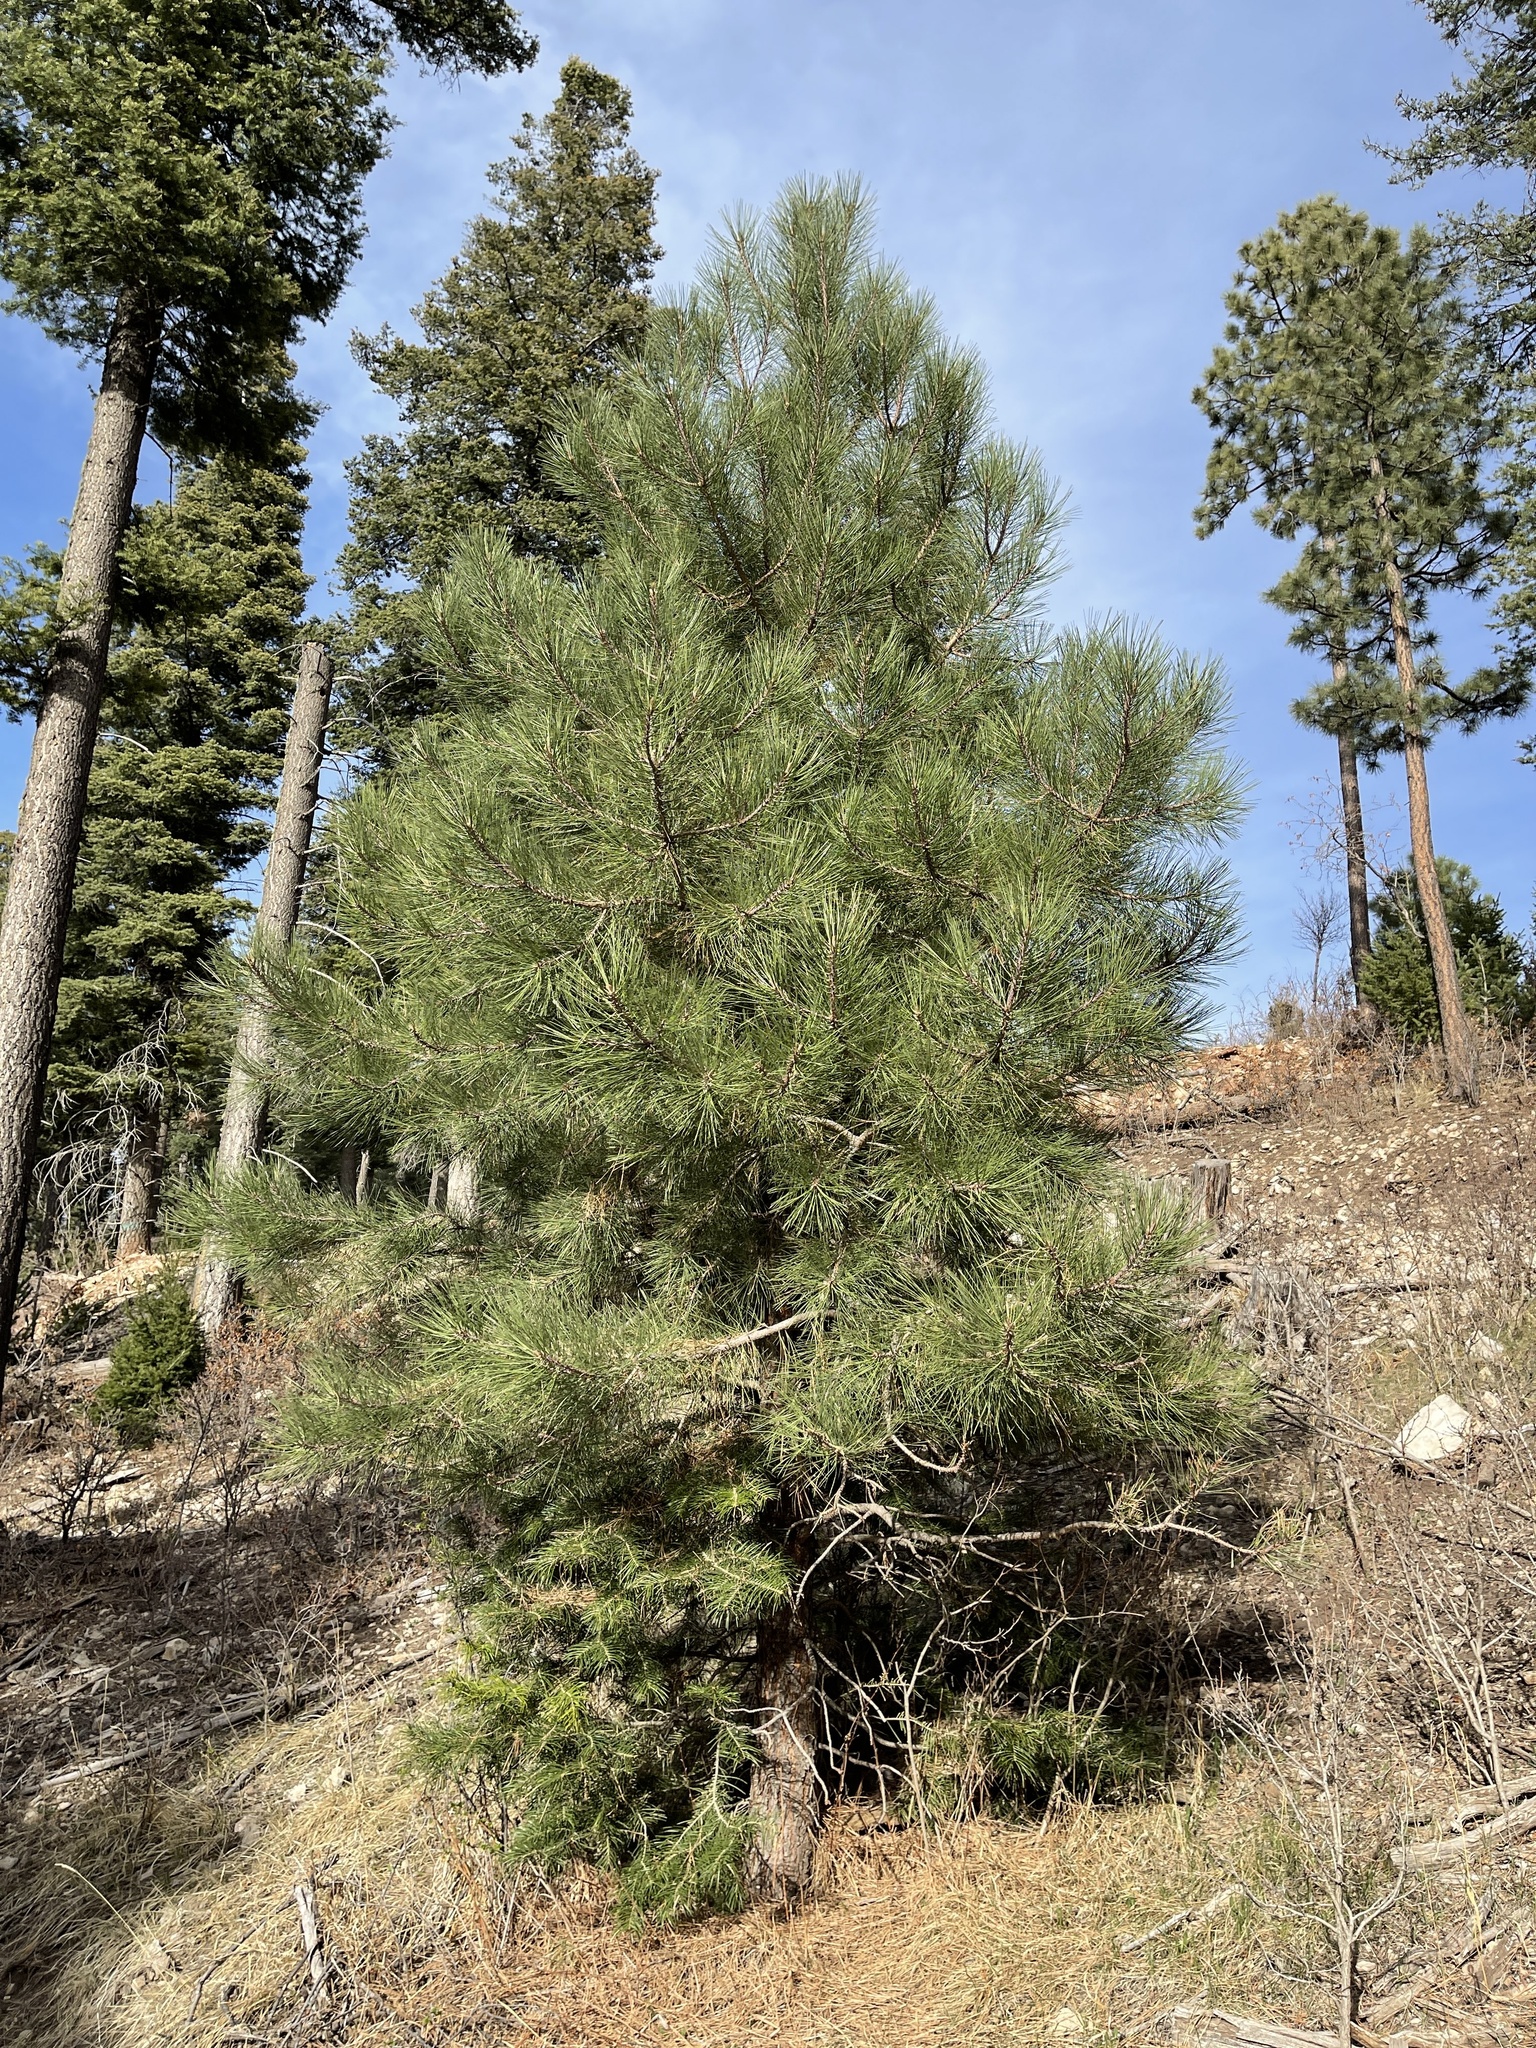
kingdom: Plantae
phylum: Tracheophyta
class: Pinopsida
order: Pinales
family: Pinaceae
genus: Pinus
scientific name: Pinus ponderosa
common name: Western yellow-pine
